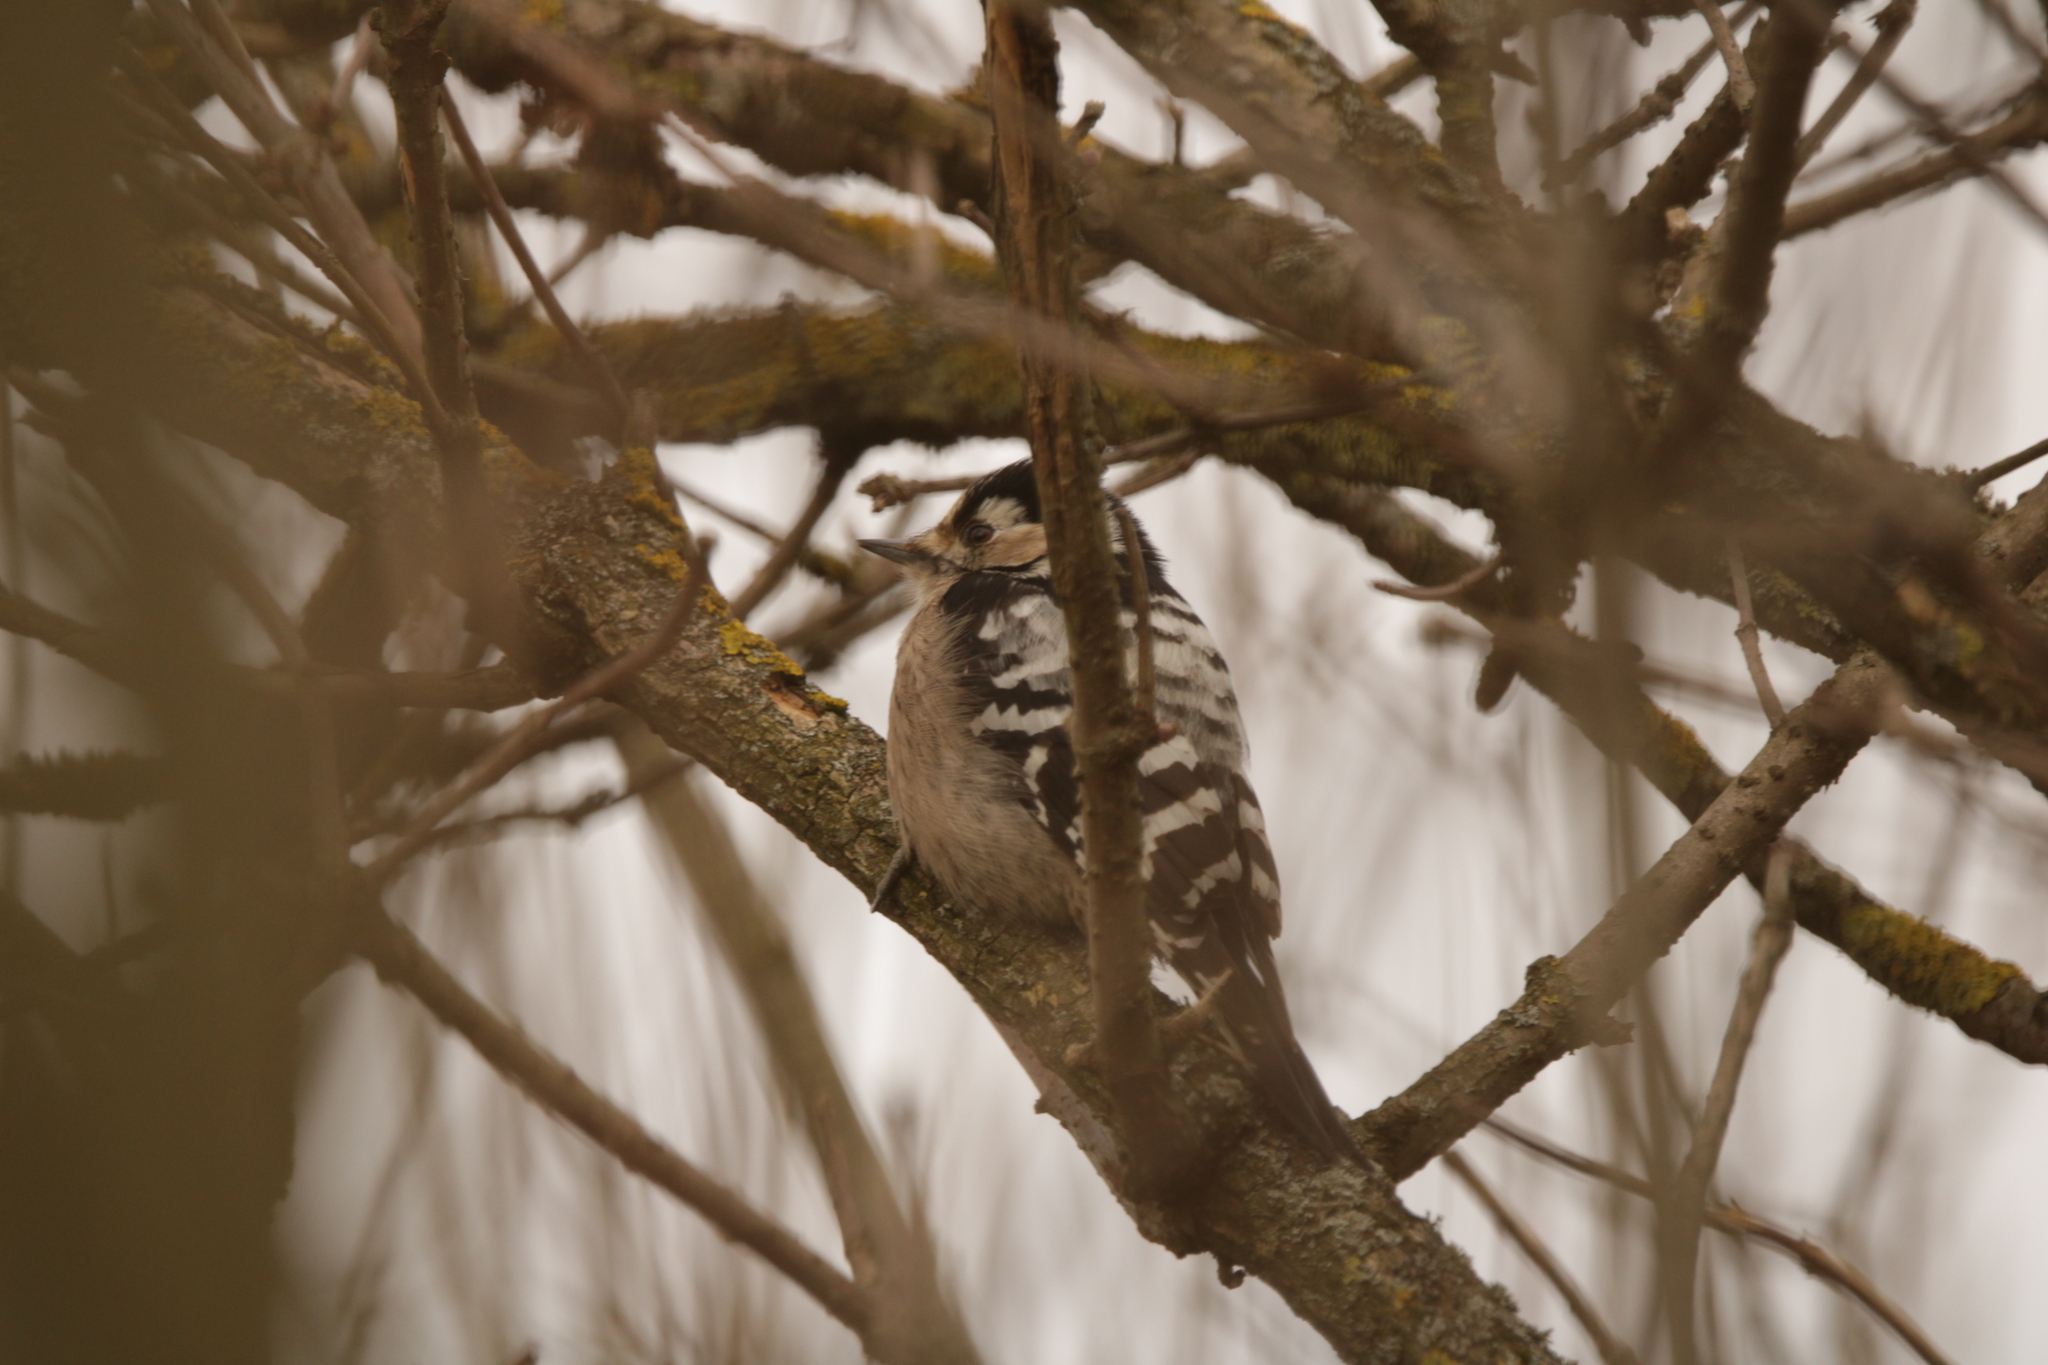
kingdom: Animalia
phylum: Chordata
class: Aves
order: Piciformes
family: Picidae
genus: Dryobates
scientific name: Dryobates minor
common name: Lesser spotted woodpecker
